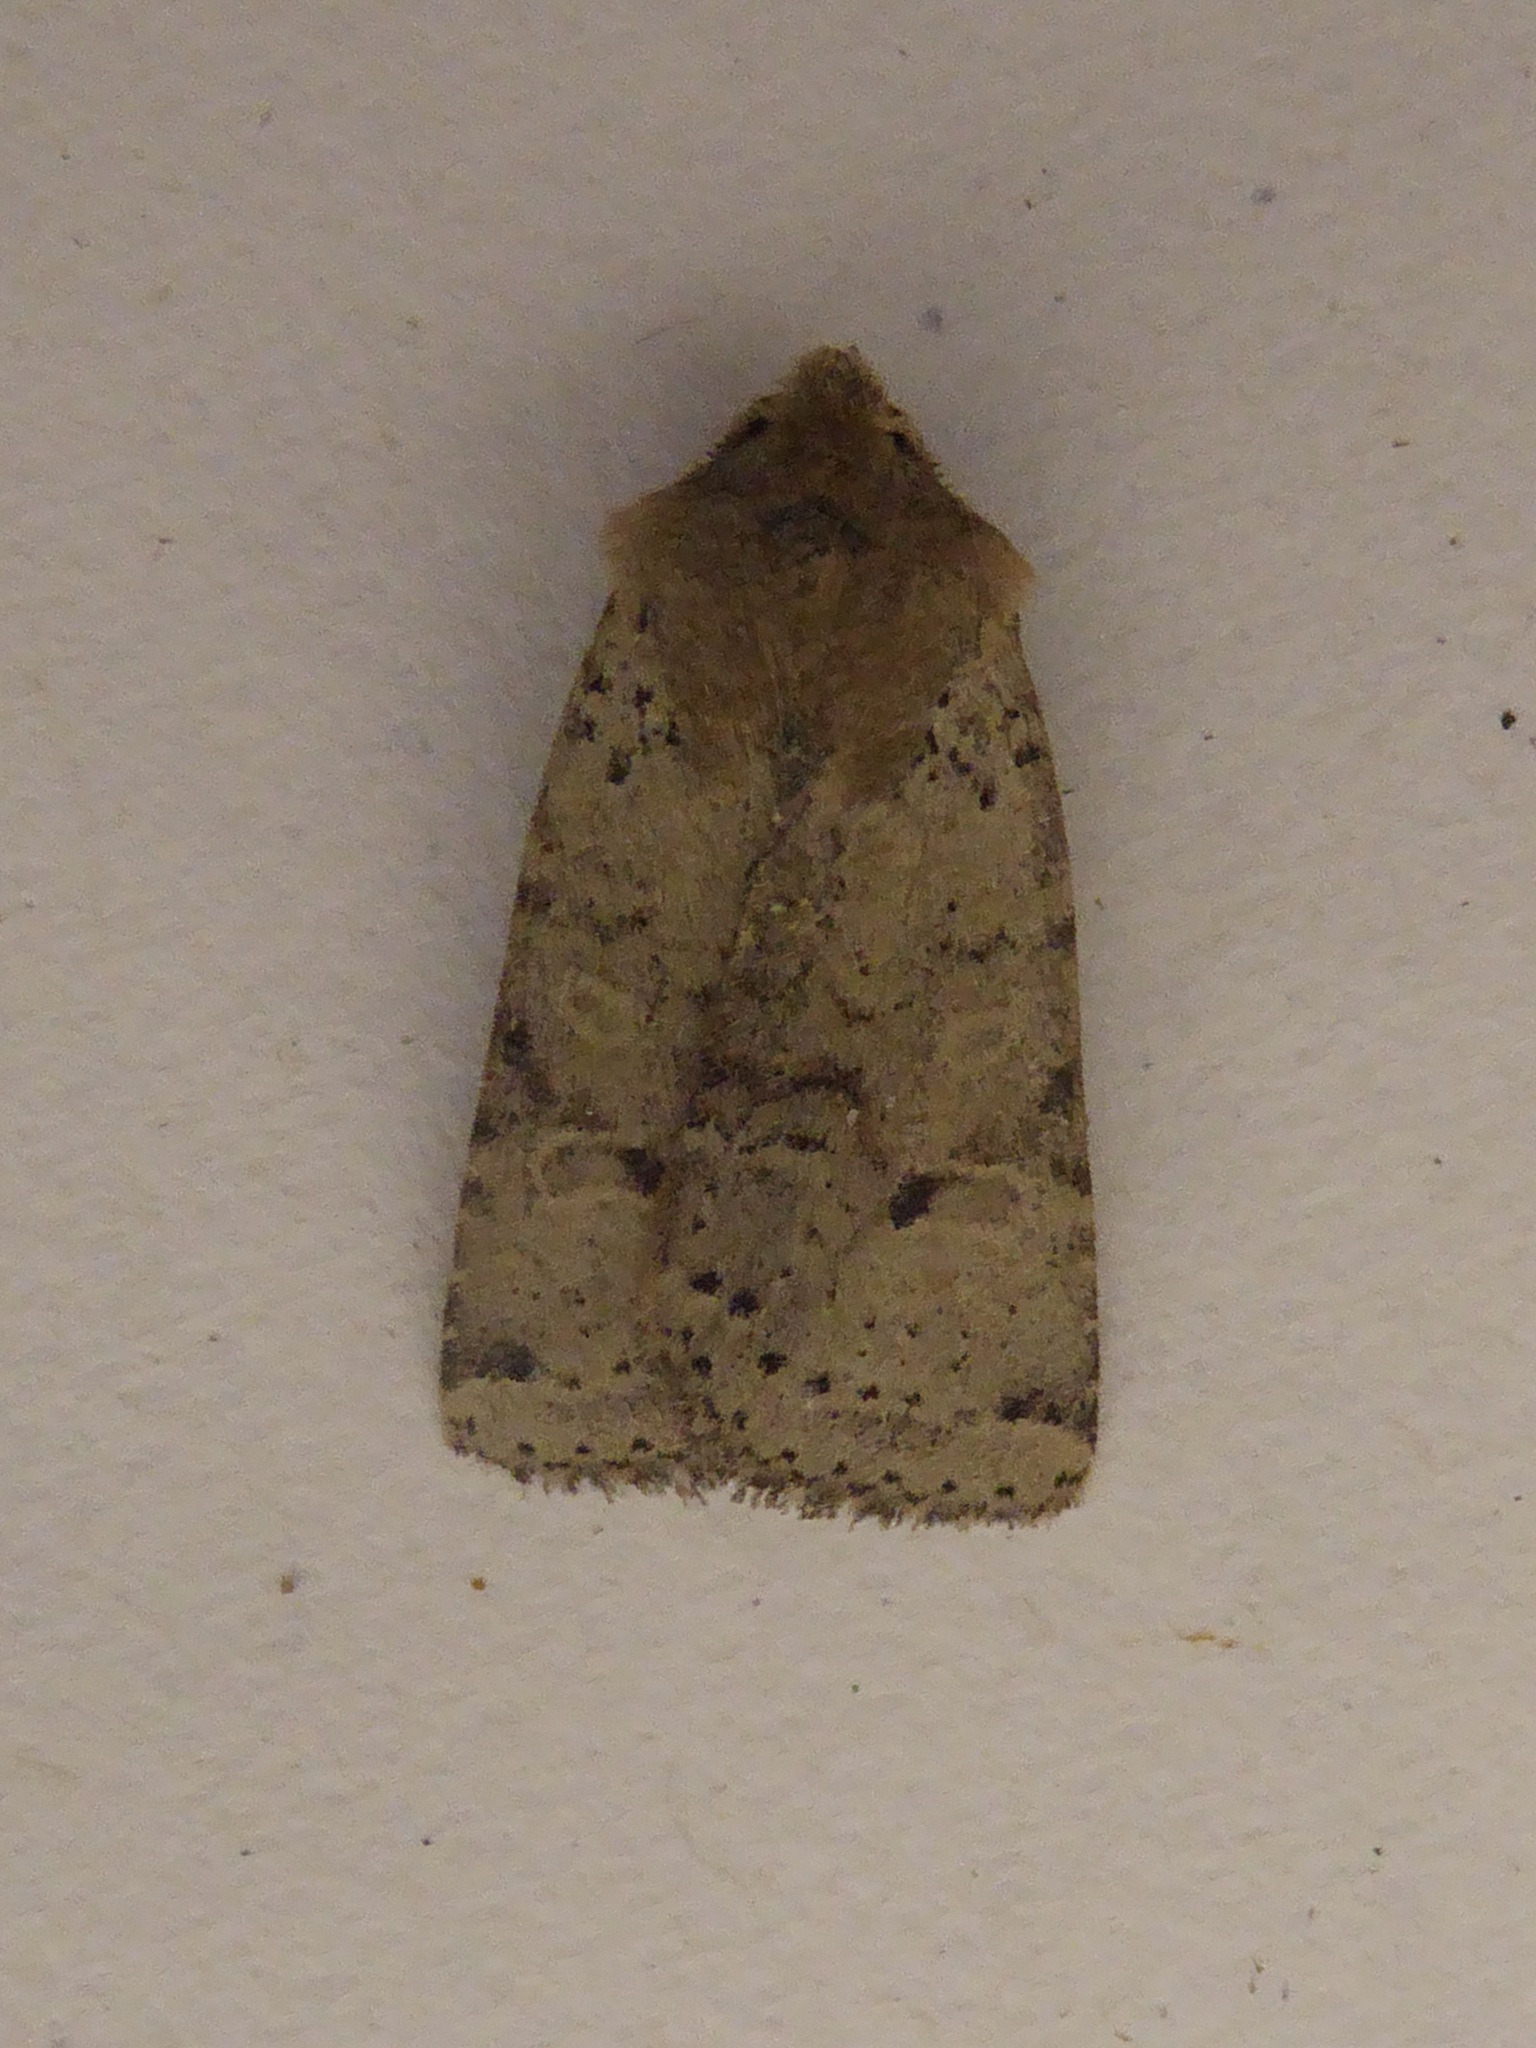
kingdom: Animalia
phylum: Arthropoda
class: Insecta
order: Lepidoptera
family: Noctuidae
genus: Agrochola
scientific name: Agrochola ruticilla
